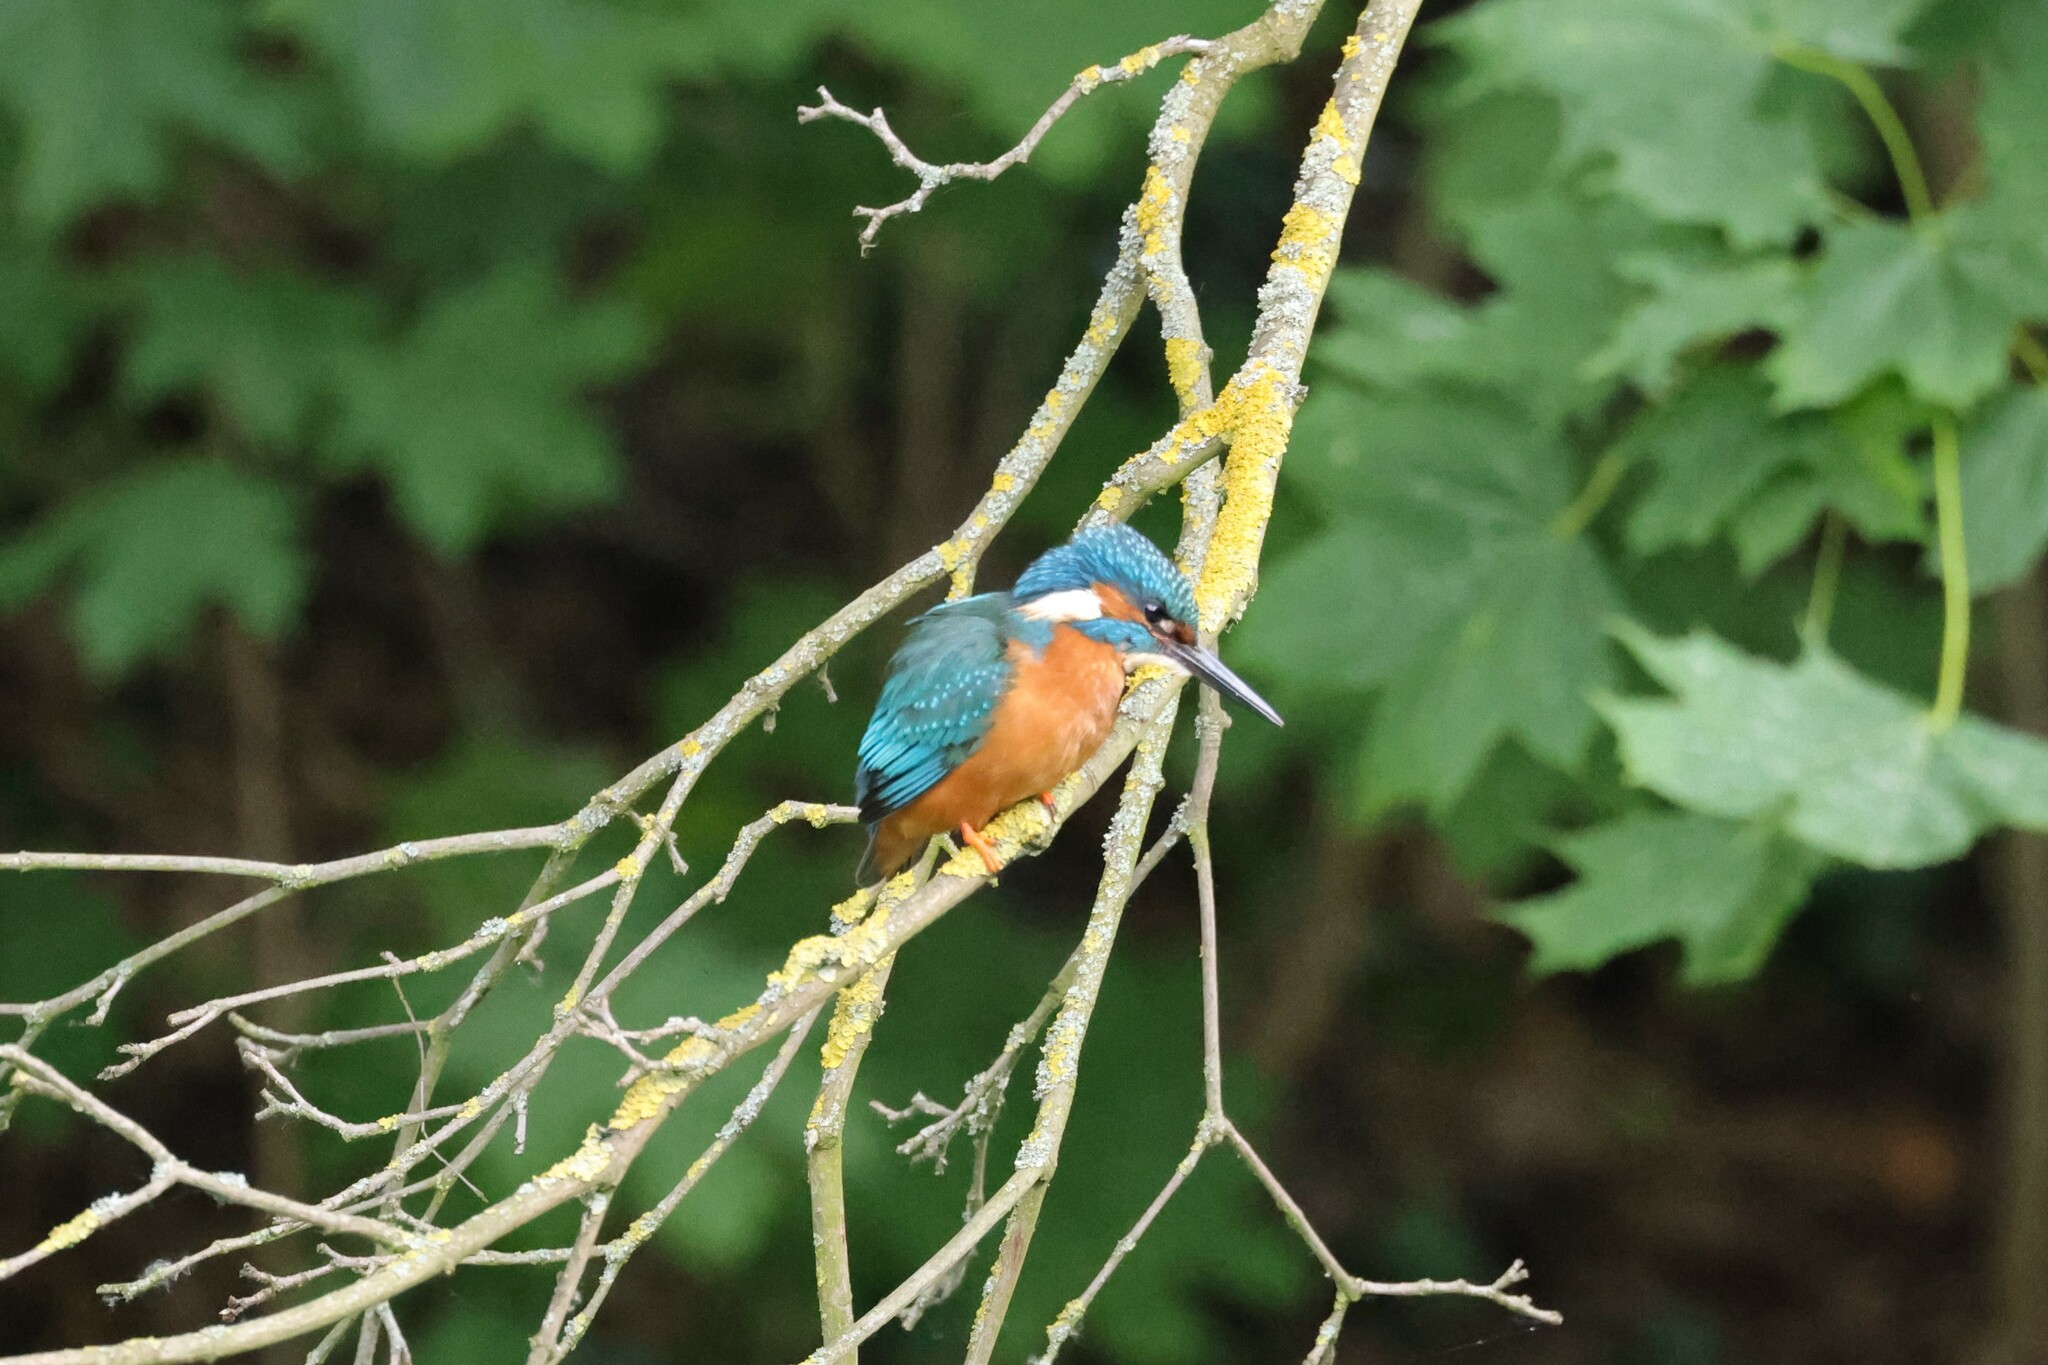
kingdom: Animalia
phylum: Chordata
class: Aves
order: Coraciiformes
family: Alcedinidae
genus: Alcedo
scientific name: Alcedo atthis
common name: Common kingfisher
